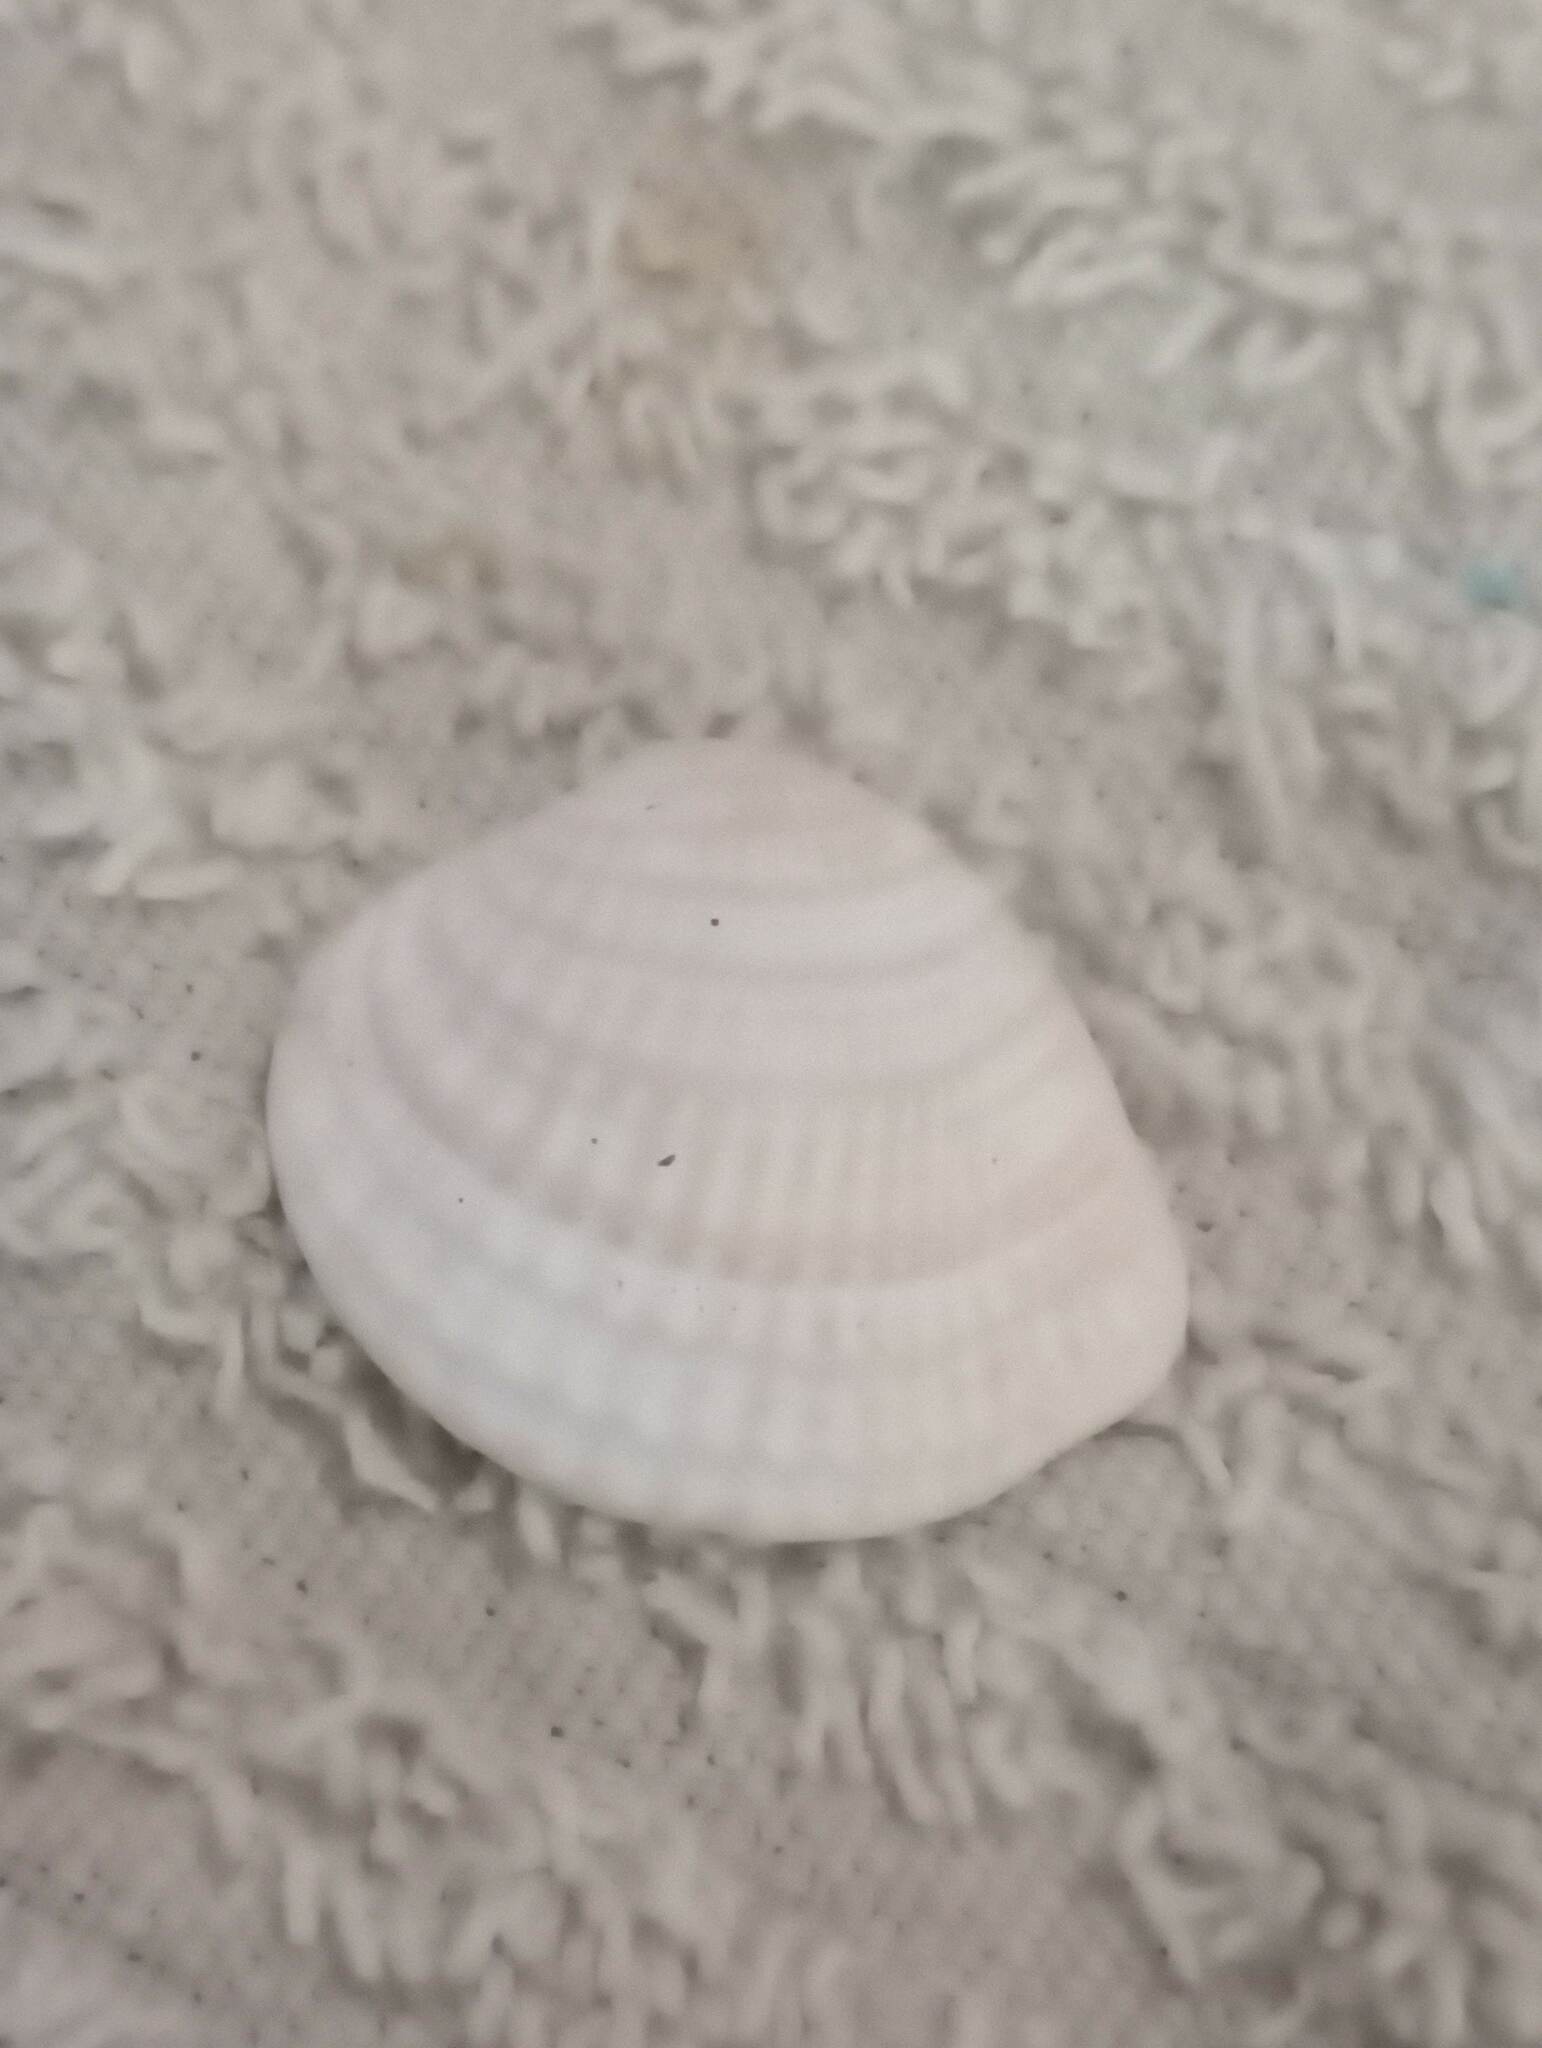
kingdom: Animalia
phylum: Mollusca
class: Bivalvia
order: Venerida
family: Veneridae
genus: Chione
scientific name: Chione elevata
